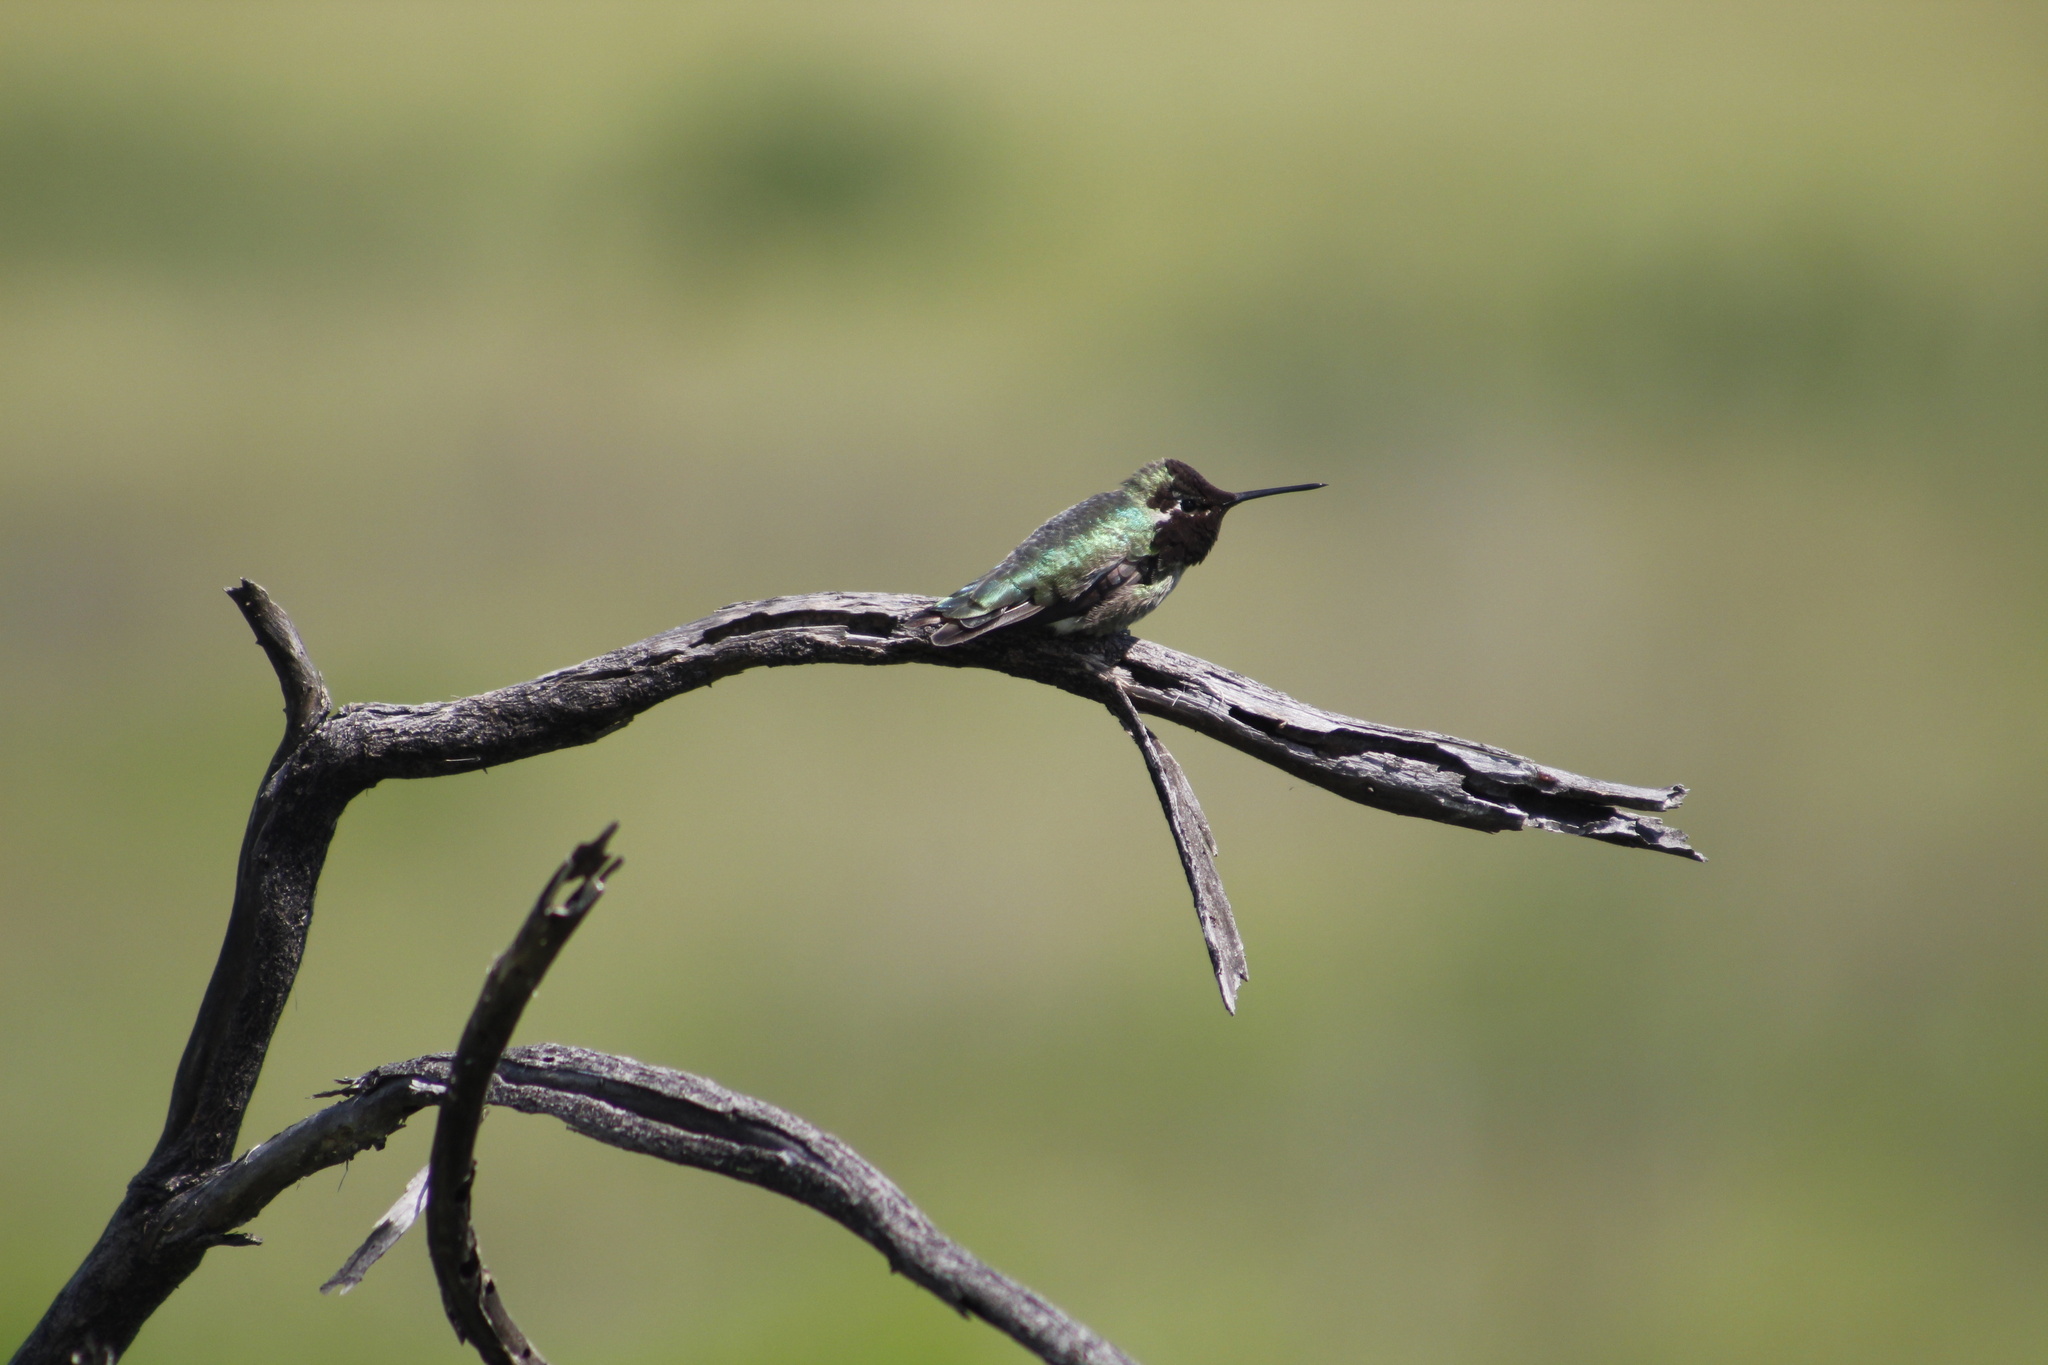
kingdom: Animalia
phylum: Chordata
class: Aves
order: Apodiformes
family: Trochilidae
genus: Calypte
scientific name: Calypte anna
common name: Anna's hummingbird
